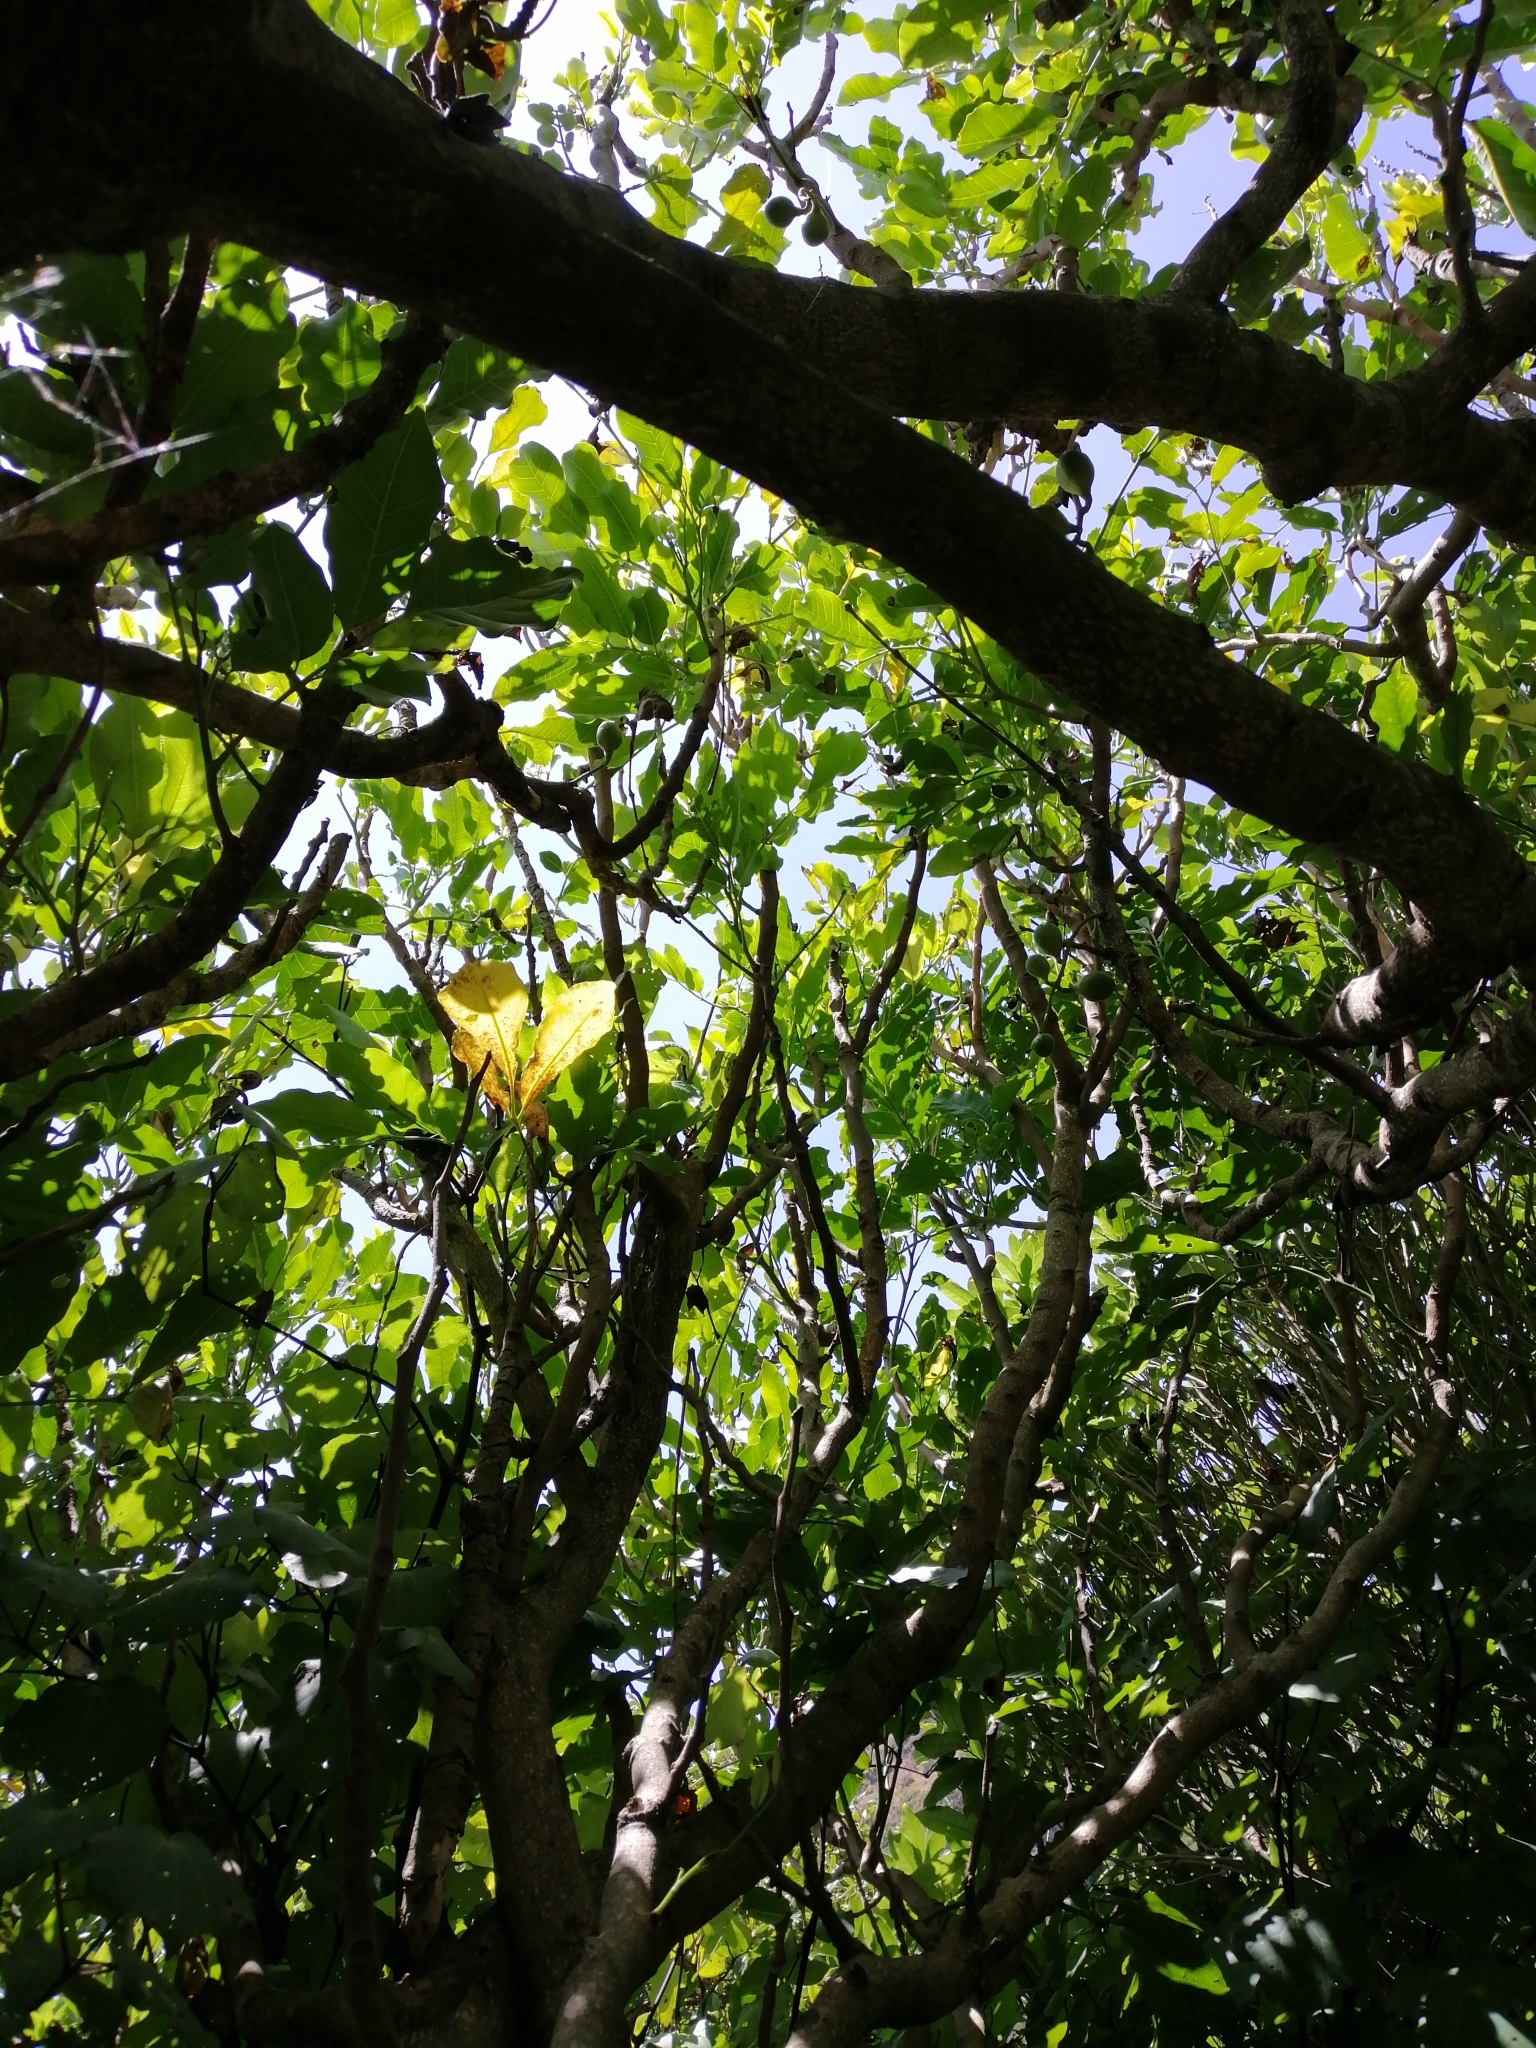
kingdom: Plantae
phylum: Tracheophyta
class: Magnoliopsida
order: Sapindales
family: Meliaceae
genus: Didymocheton
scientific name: Didymocheton spectabilis
